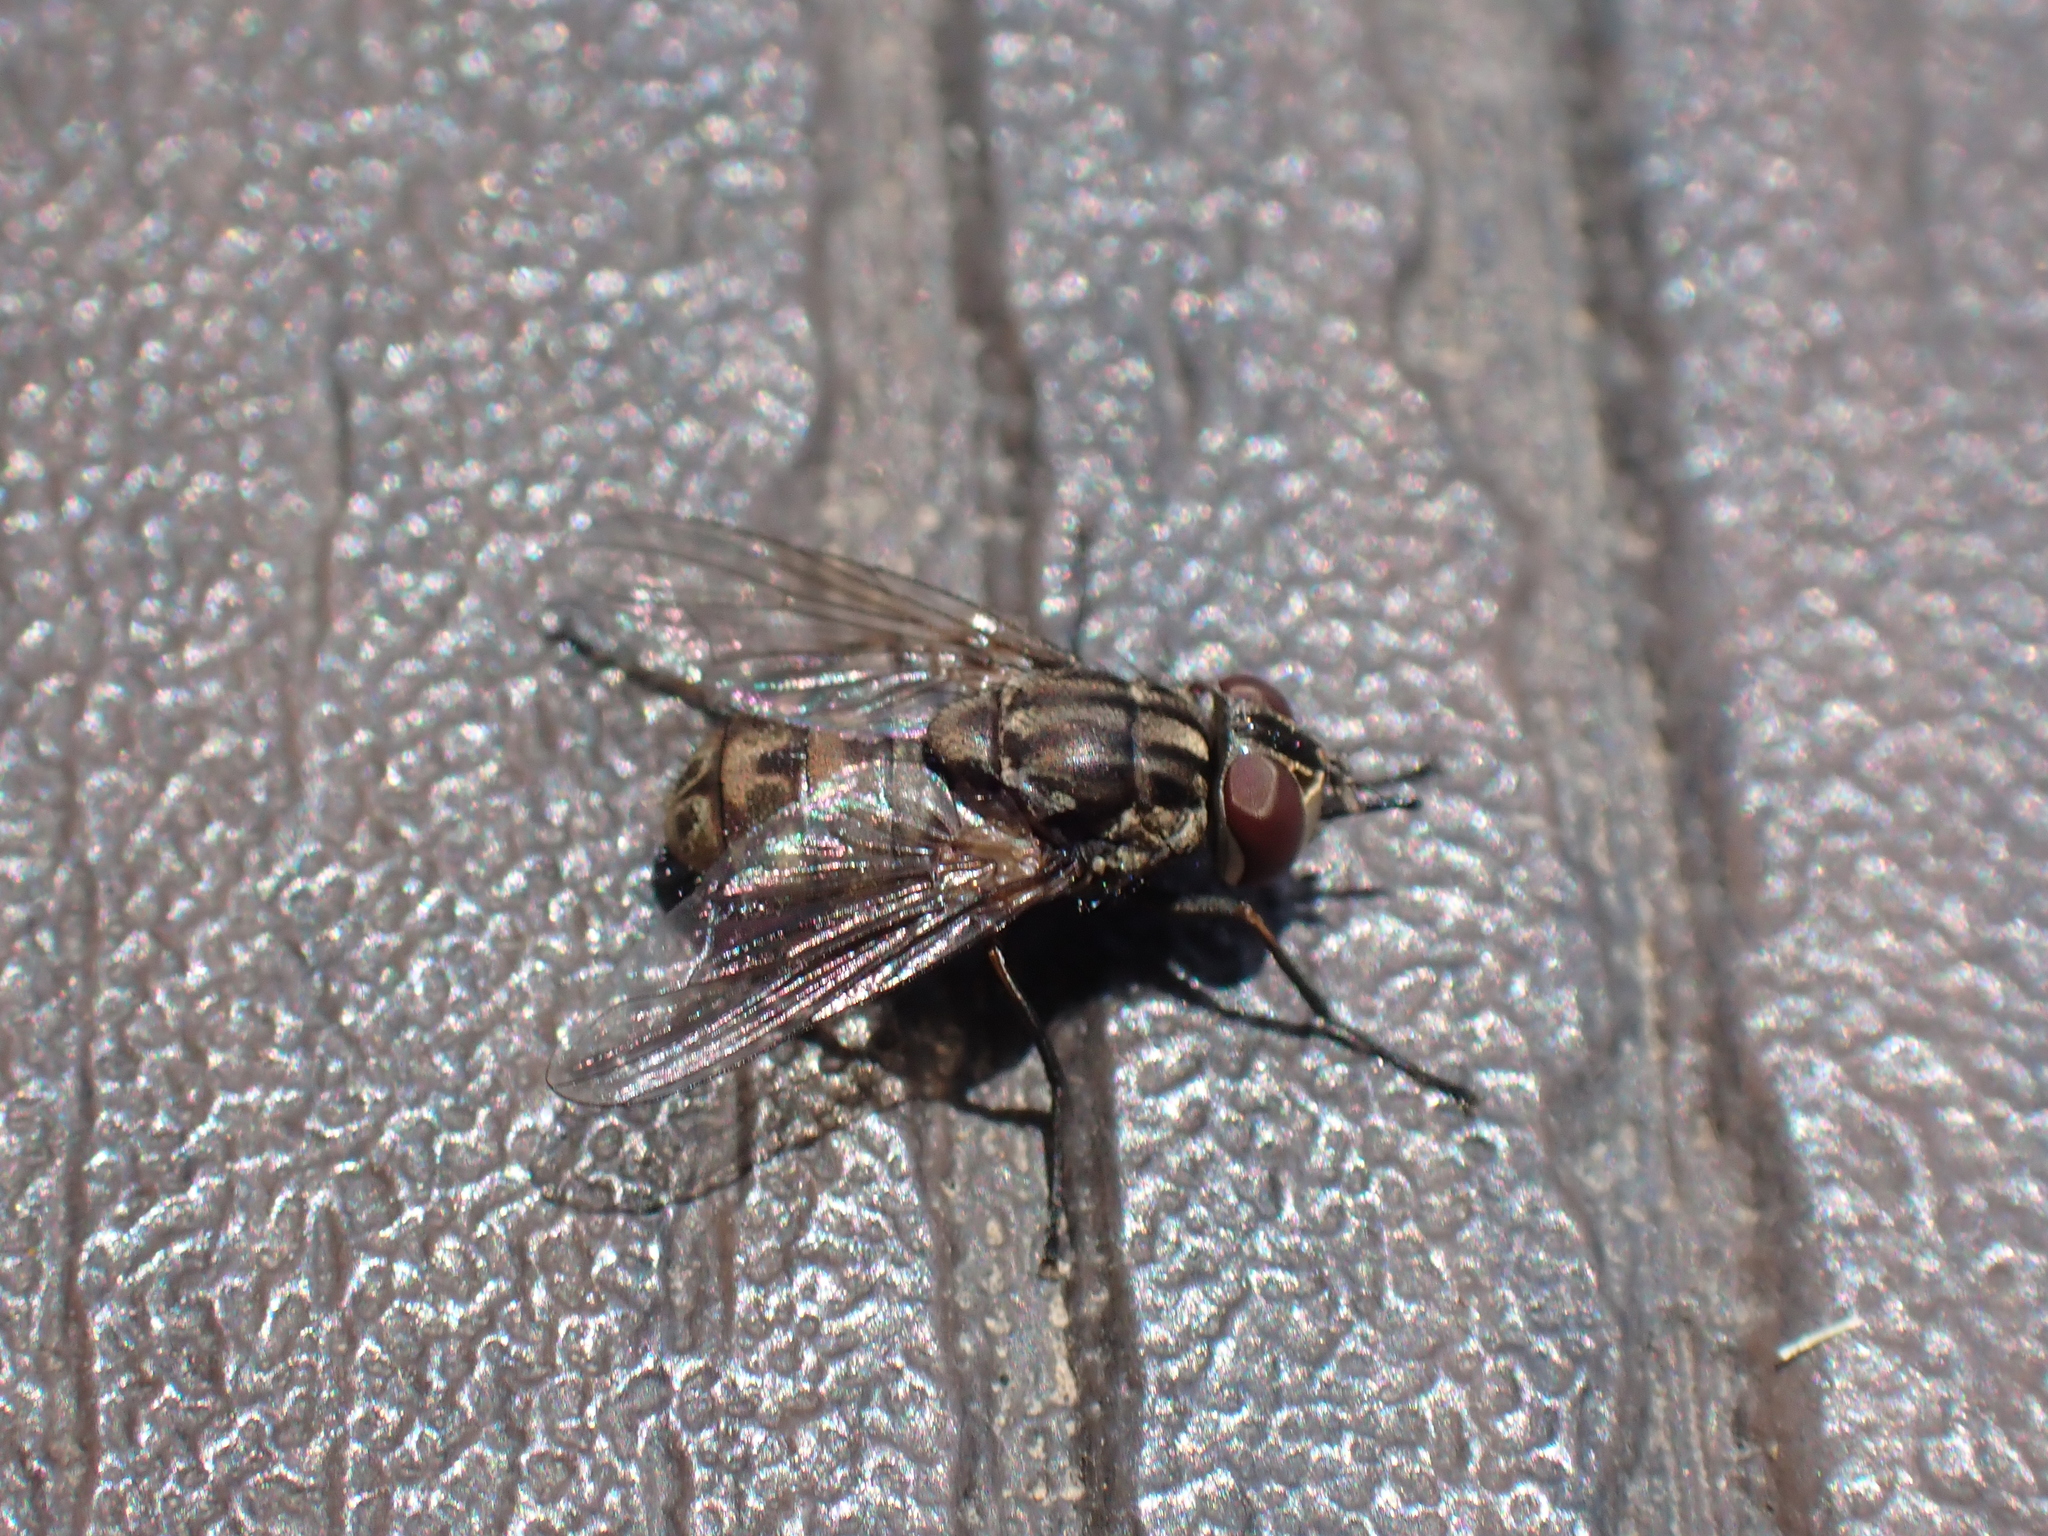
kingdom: Animalia
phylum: Arthropoda
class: Insecta
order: Diptera
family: Muscidae
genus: Stomoxys
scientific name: Stomoxys calcitrans
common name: Stable fly
